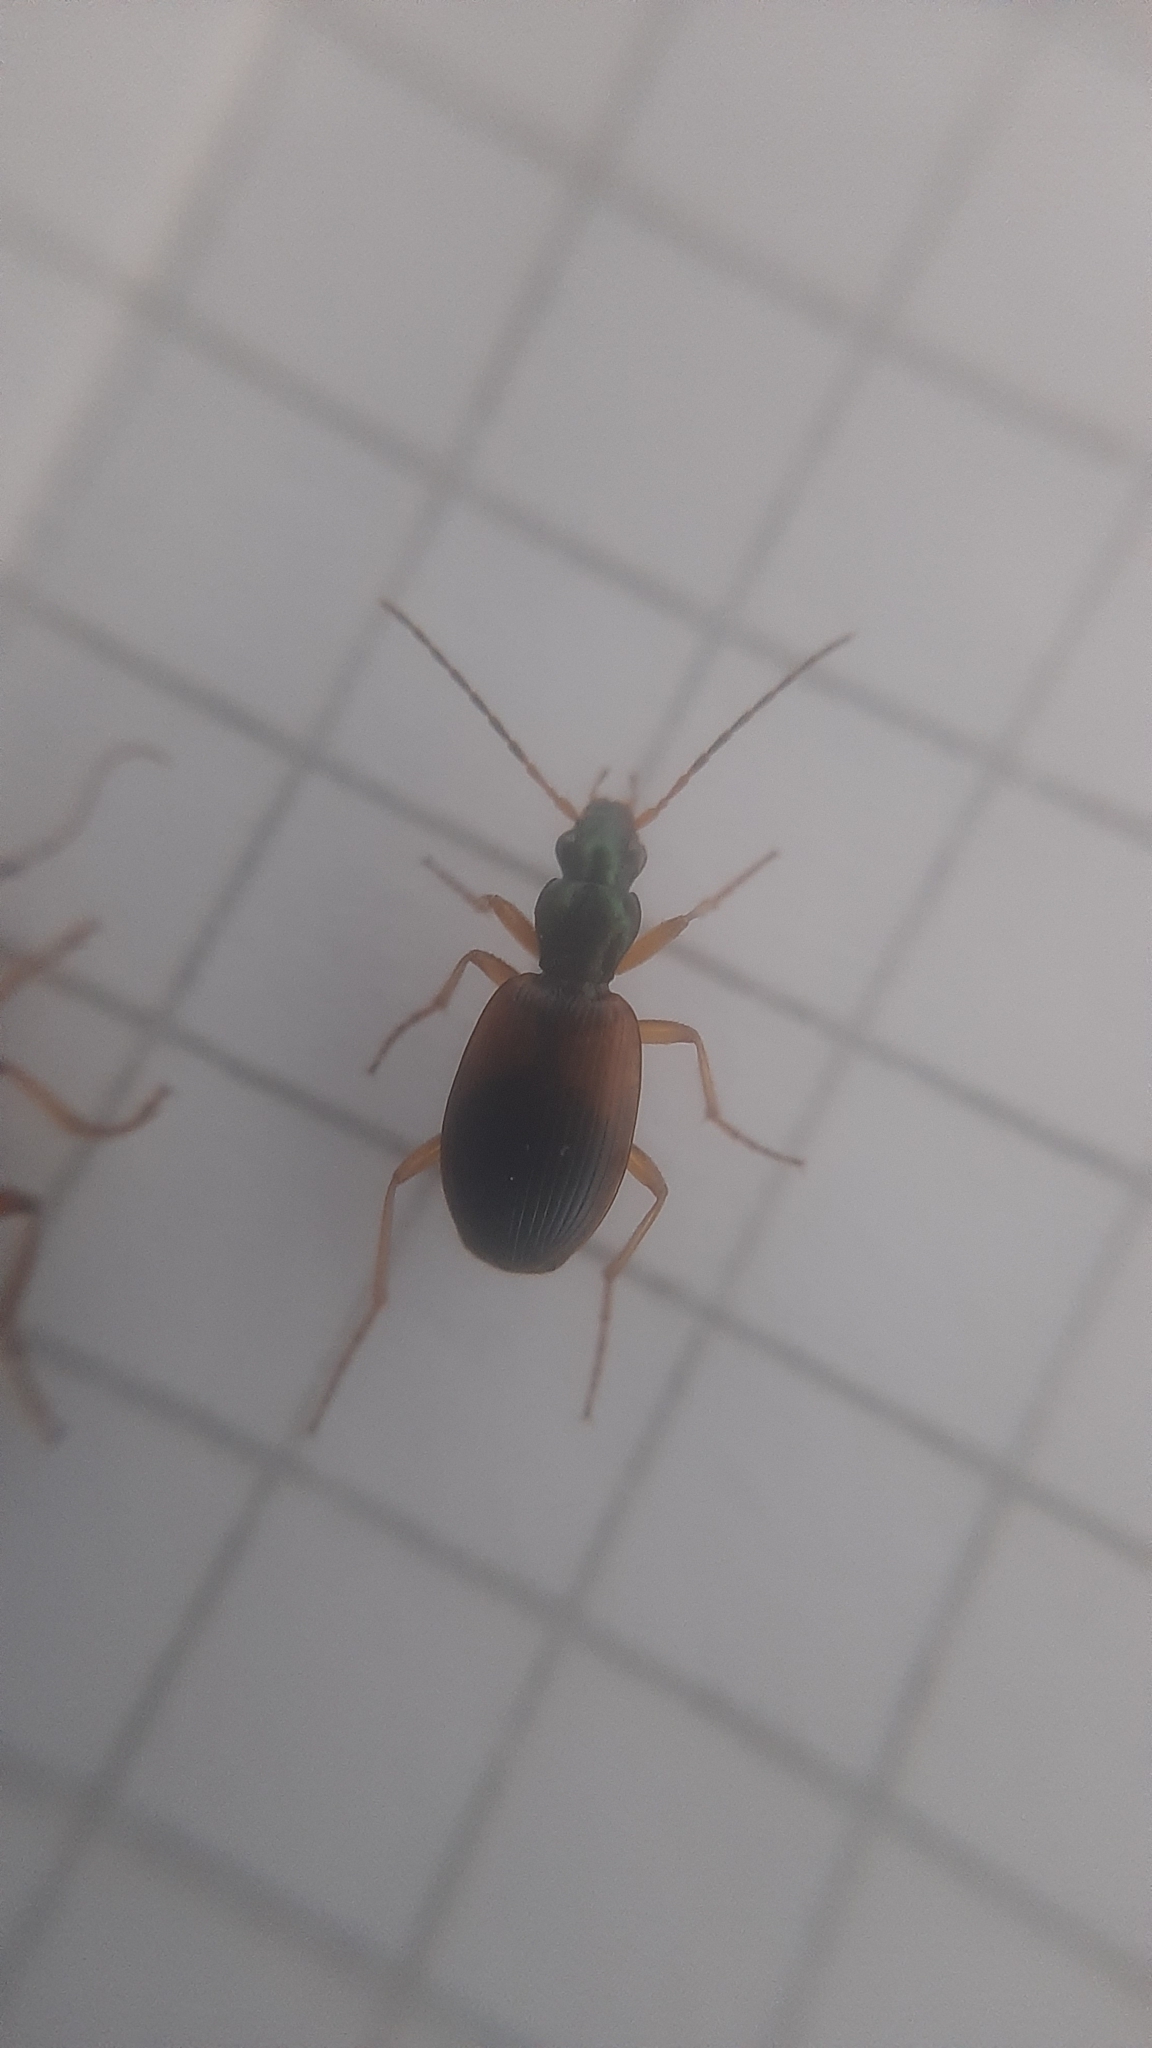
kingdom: Animalia
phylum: Arthropoda
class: Insecta
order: Coleoptera
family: Carabidae
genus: Anchomenus
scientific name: Anchomenus dorsalis
